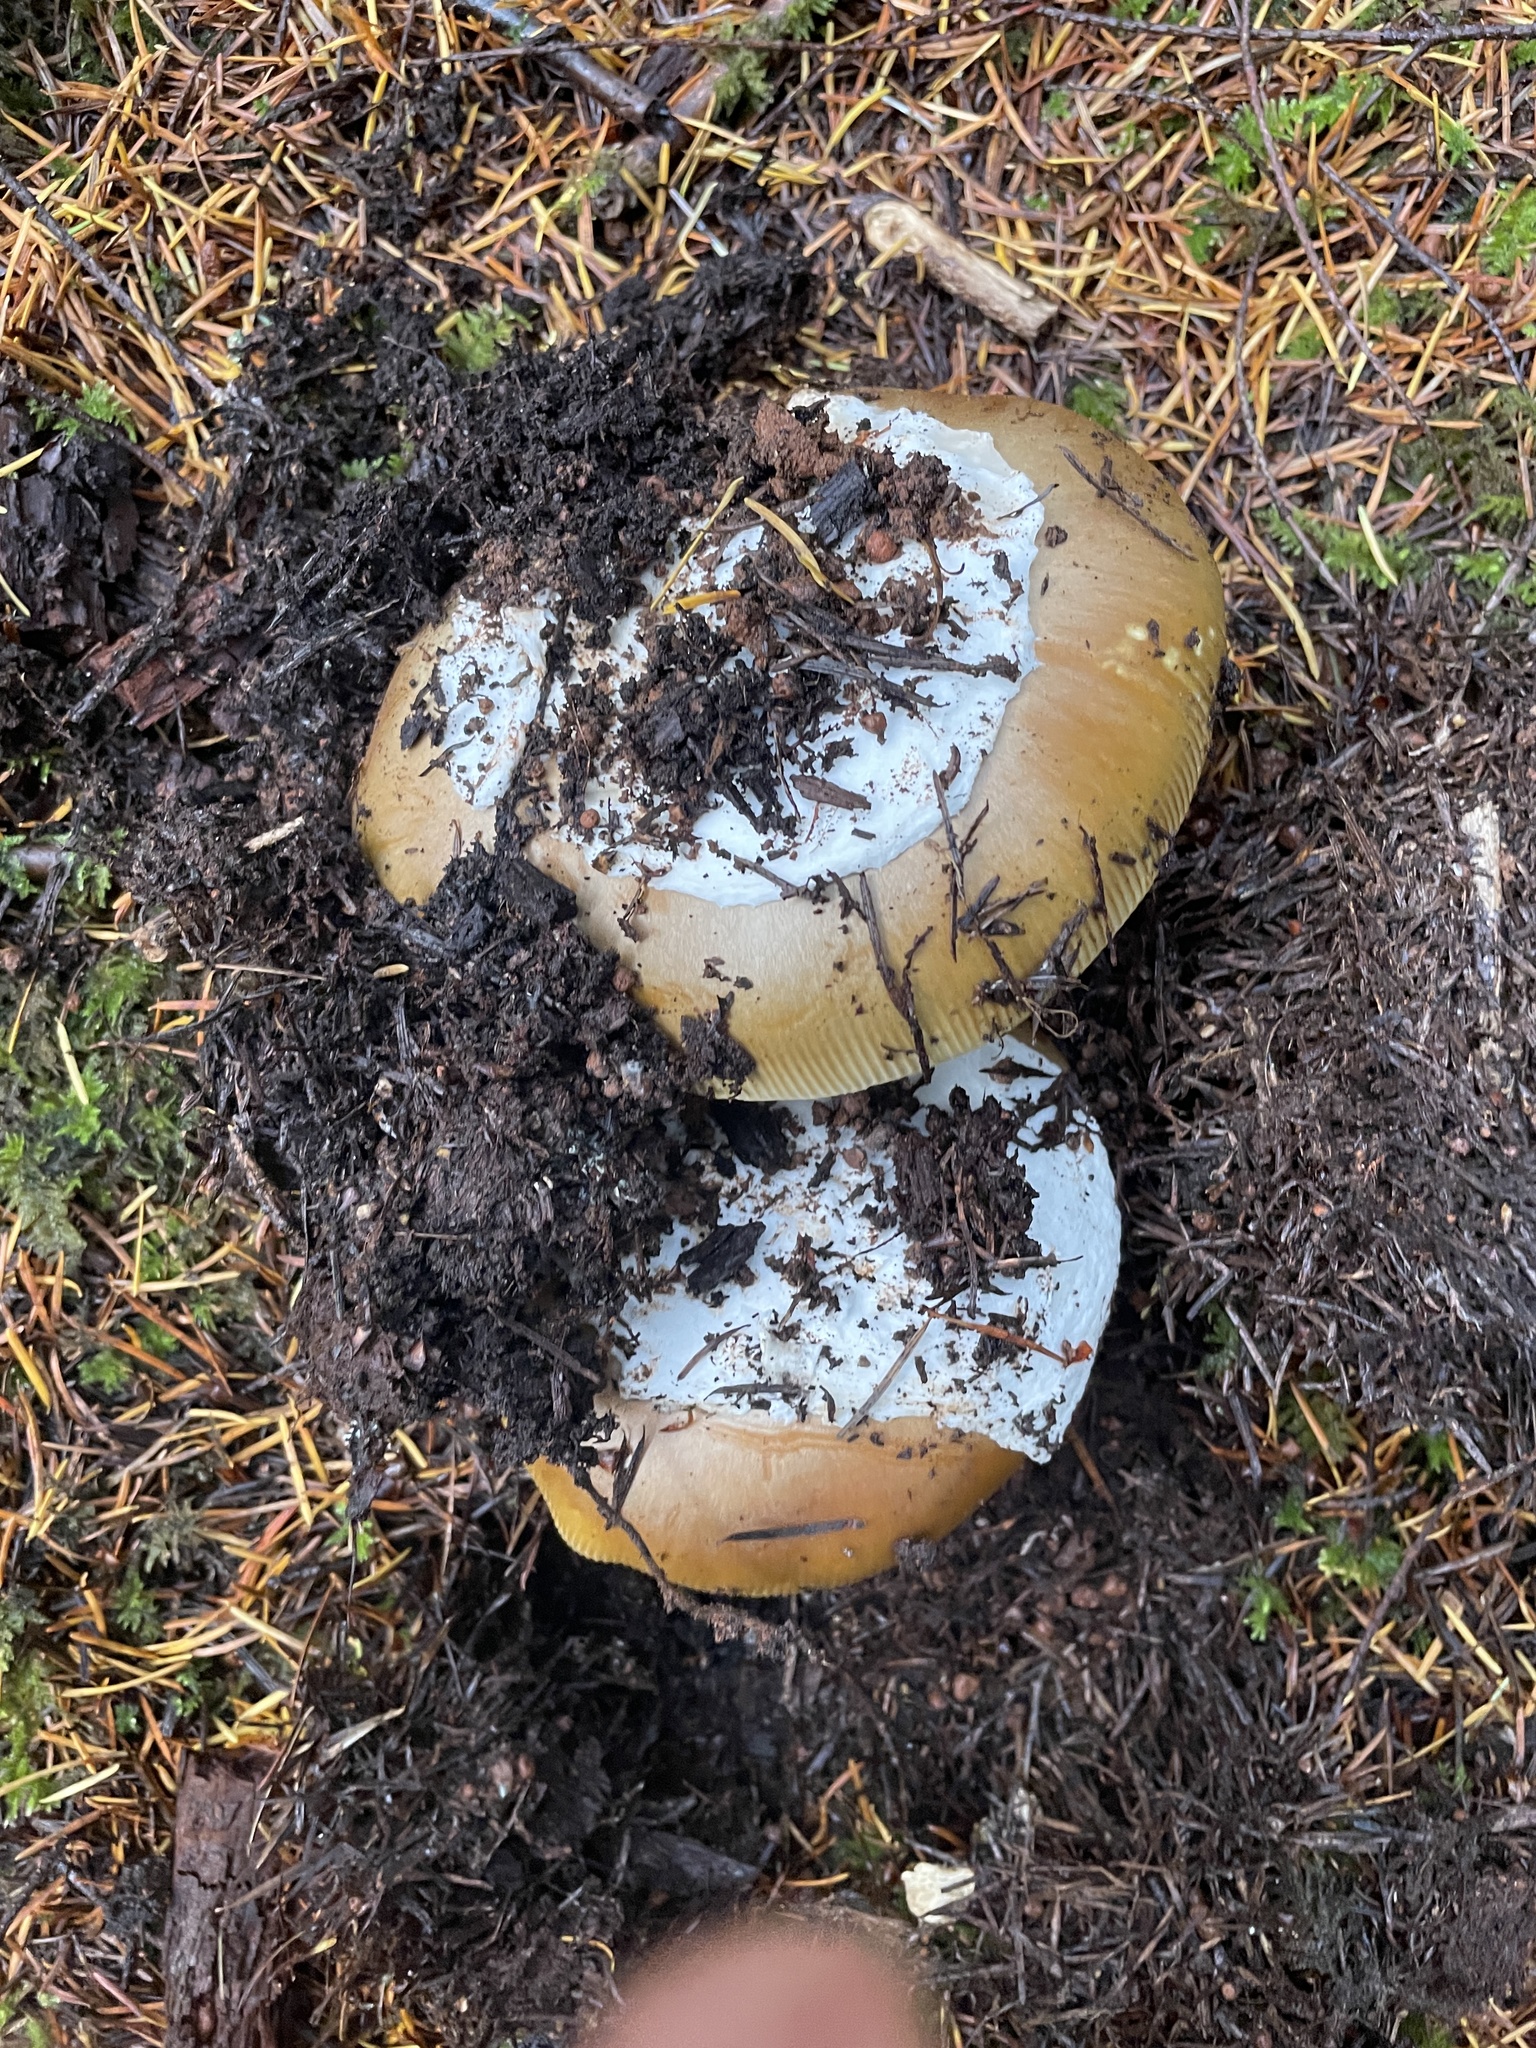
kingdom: Fungi
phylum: Basidiomycota
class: Agaricomycetes
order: Agaricales
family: Amanitaceae
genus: Amanita
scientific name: Amanita calyptroderma
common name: Coccora
